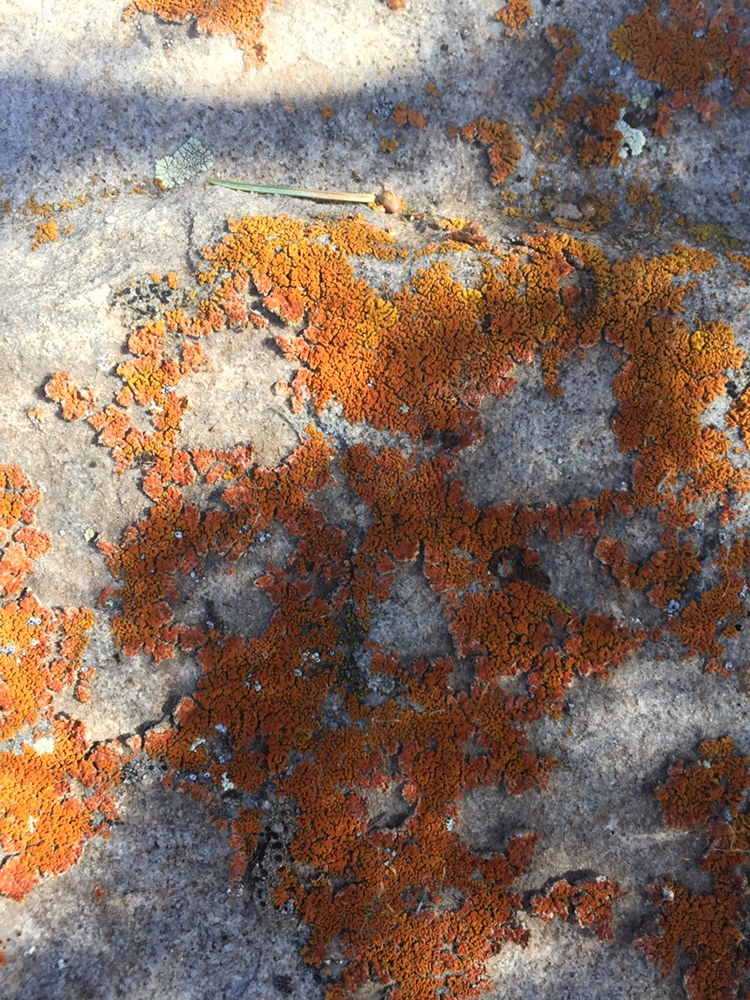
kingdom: Fungi
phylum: Ascomycota
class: Lecanoromycetes
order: Teloschistales
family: Teloschistaceae
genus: Xanthoria
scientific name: Xanthoria elegans
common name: Elegant sunburst lichen
